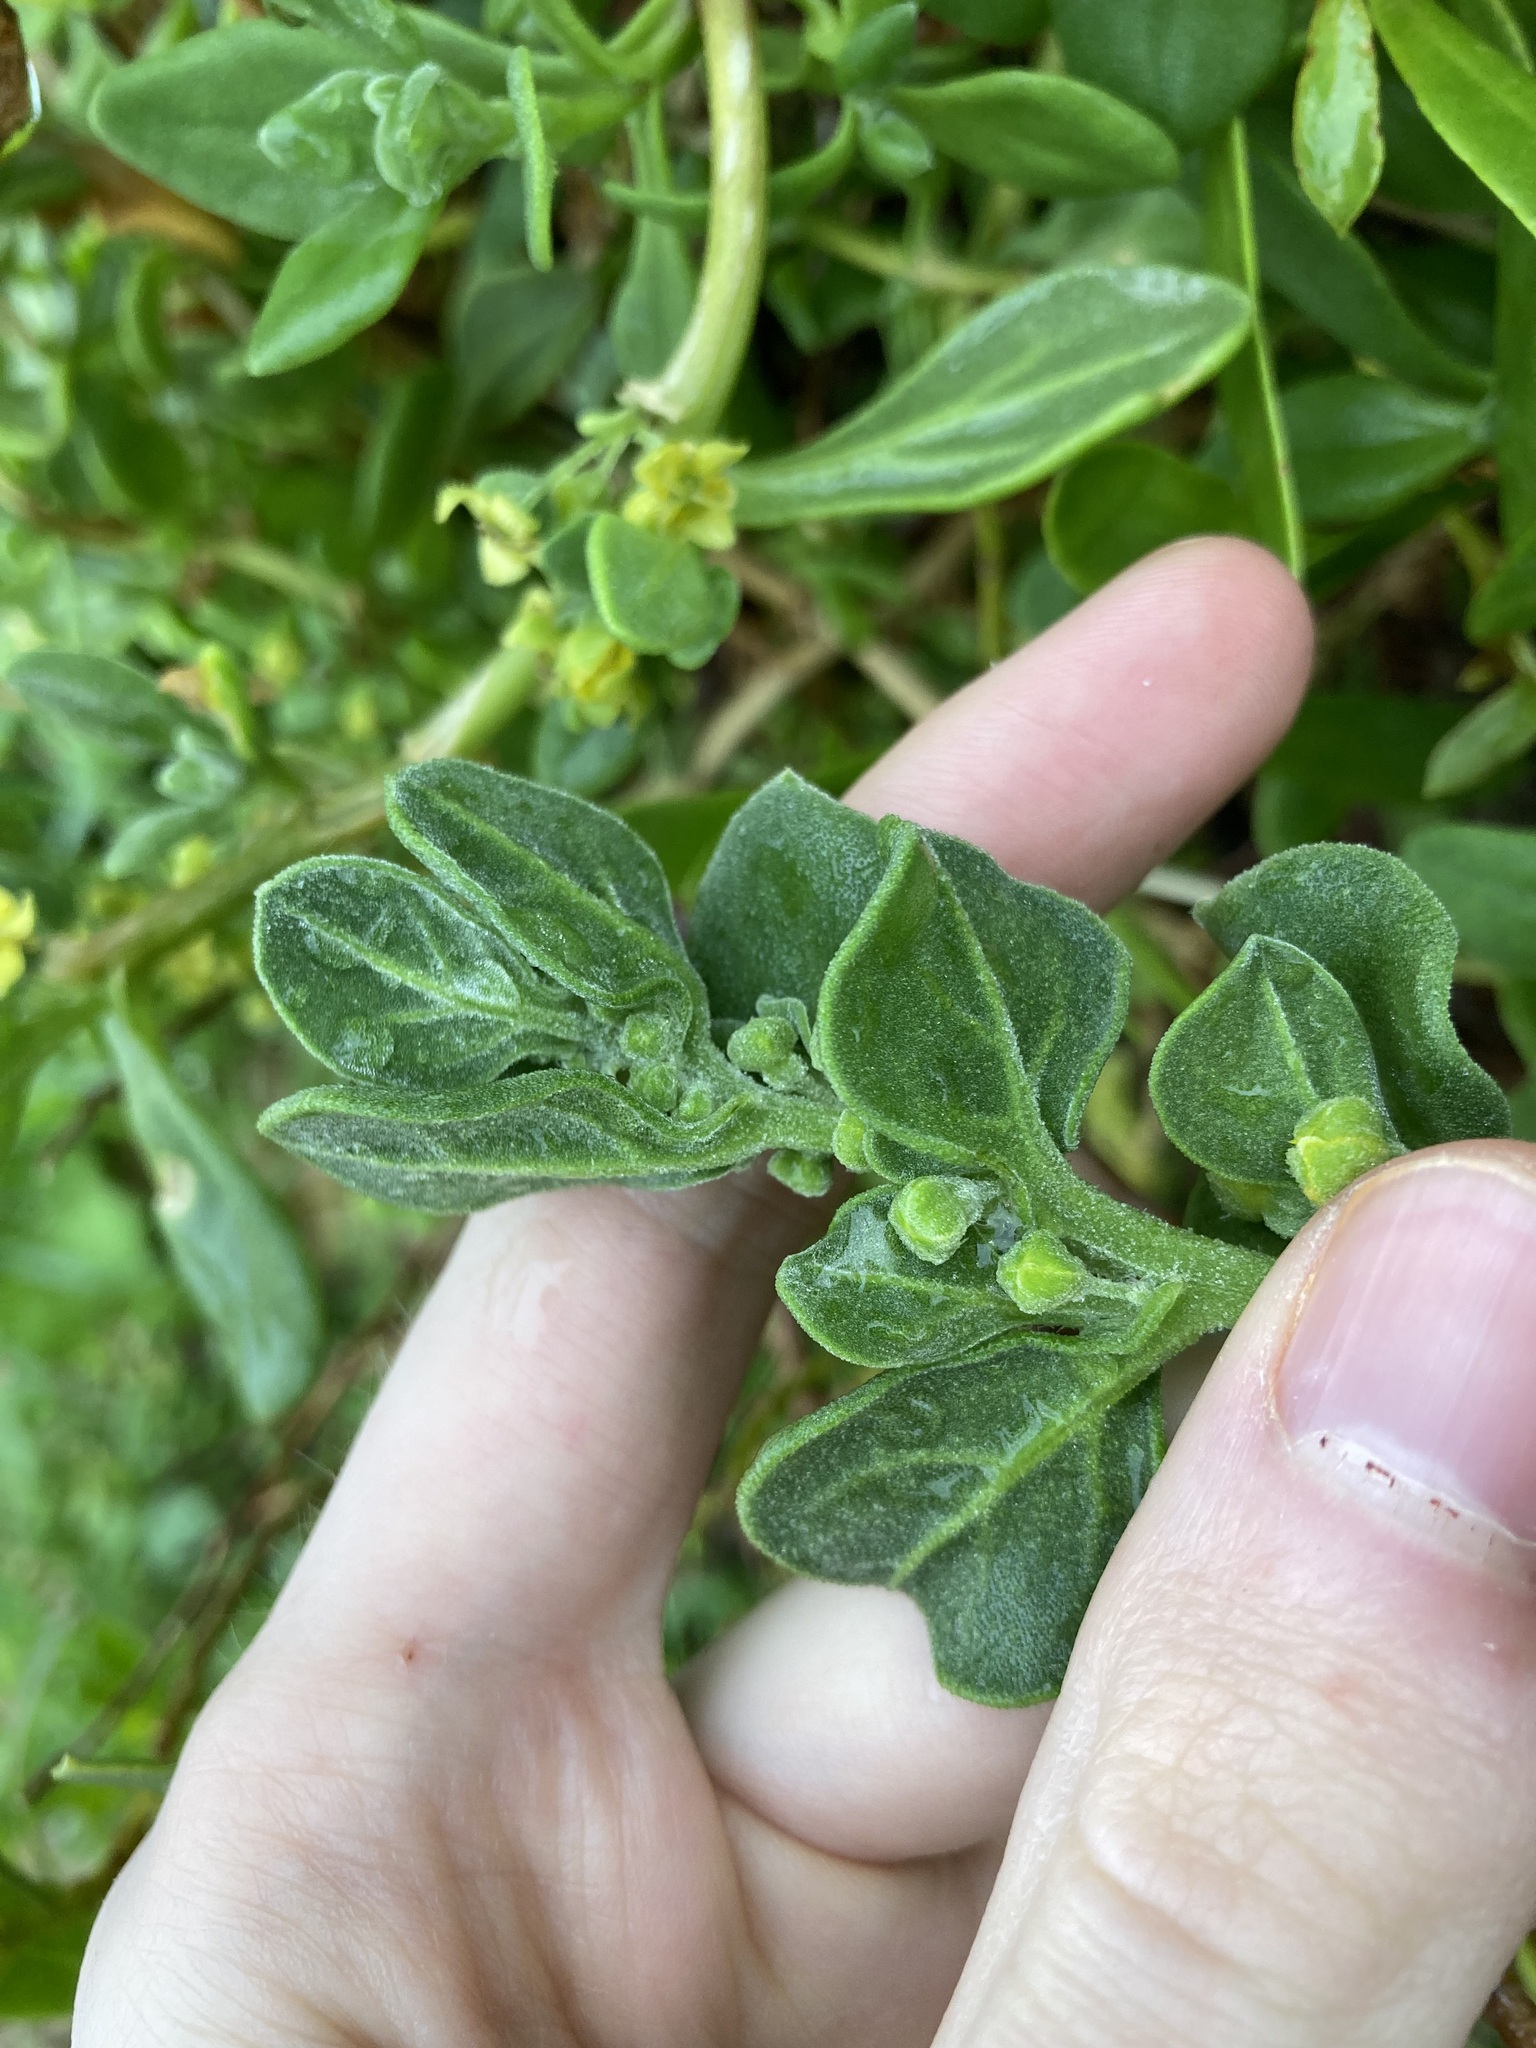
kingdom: Plantae
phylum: Tracheophyta
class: Magnoliopsida
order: Caryophyllales
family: Aizoaceae
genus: Tetragonia
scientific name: Tetragonia decumbens
